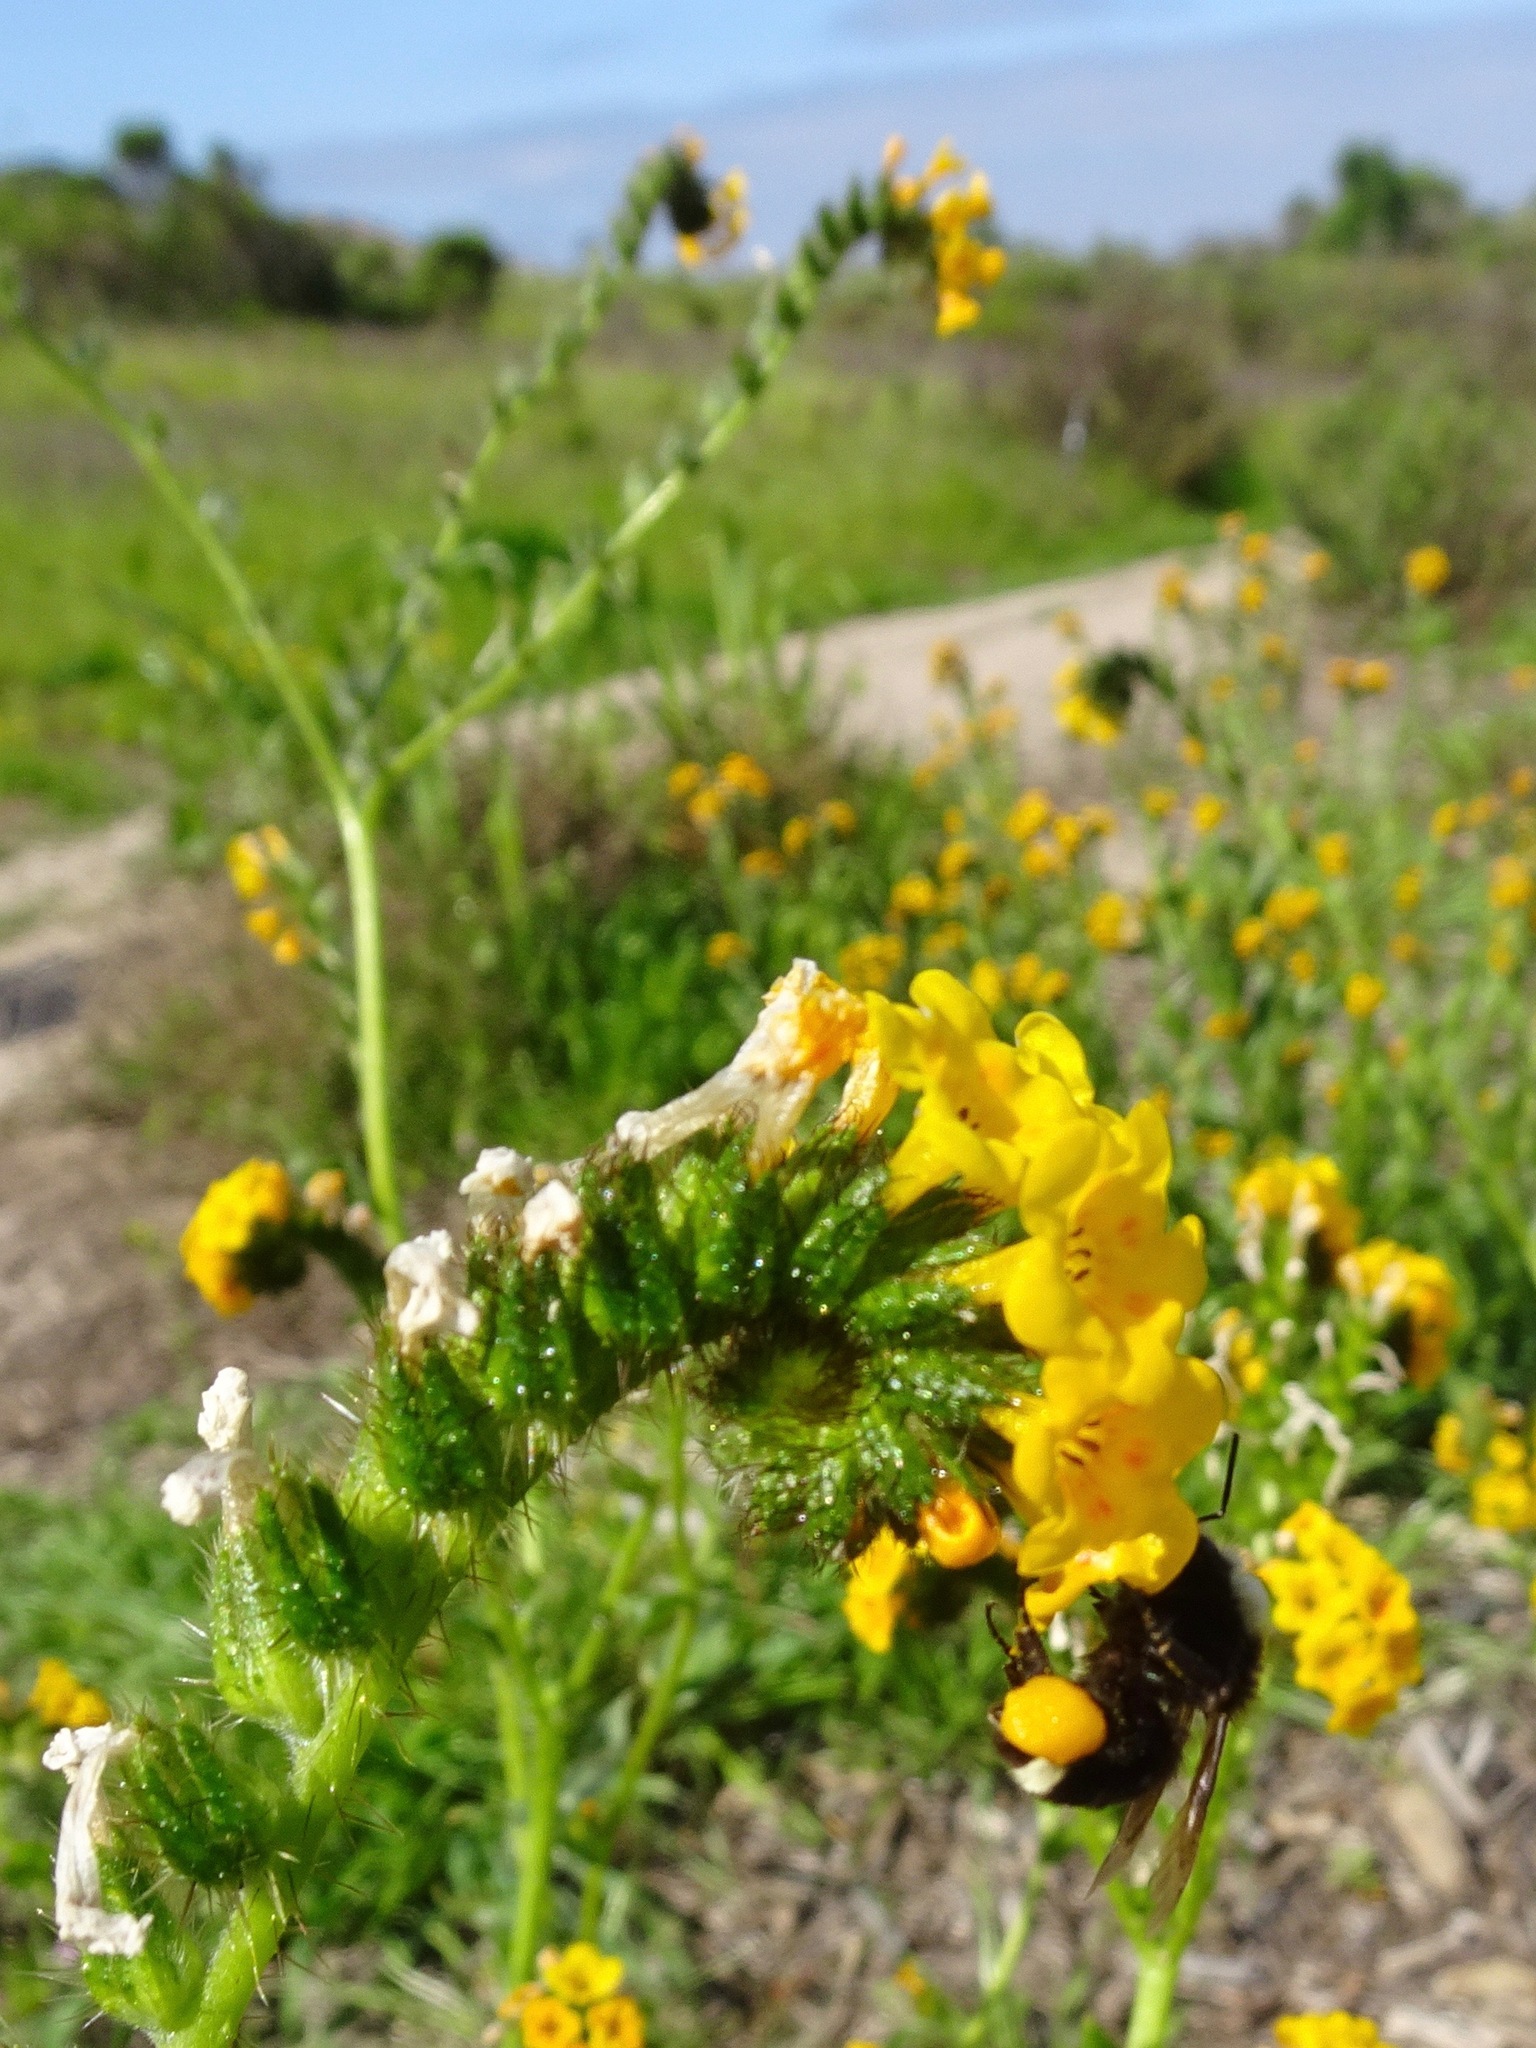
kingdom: Animalia
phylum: Arthropoda
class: Insecta
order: Hymenoptera
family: Apidae
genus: Bombus
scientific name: Bombus vosnesenskii
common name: Vosnesensky bumble bee
